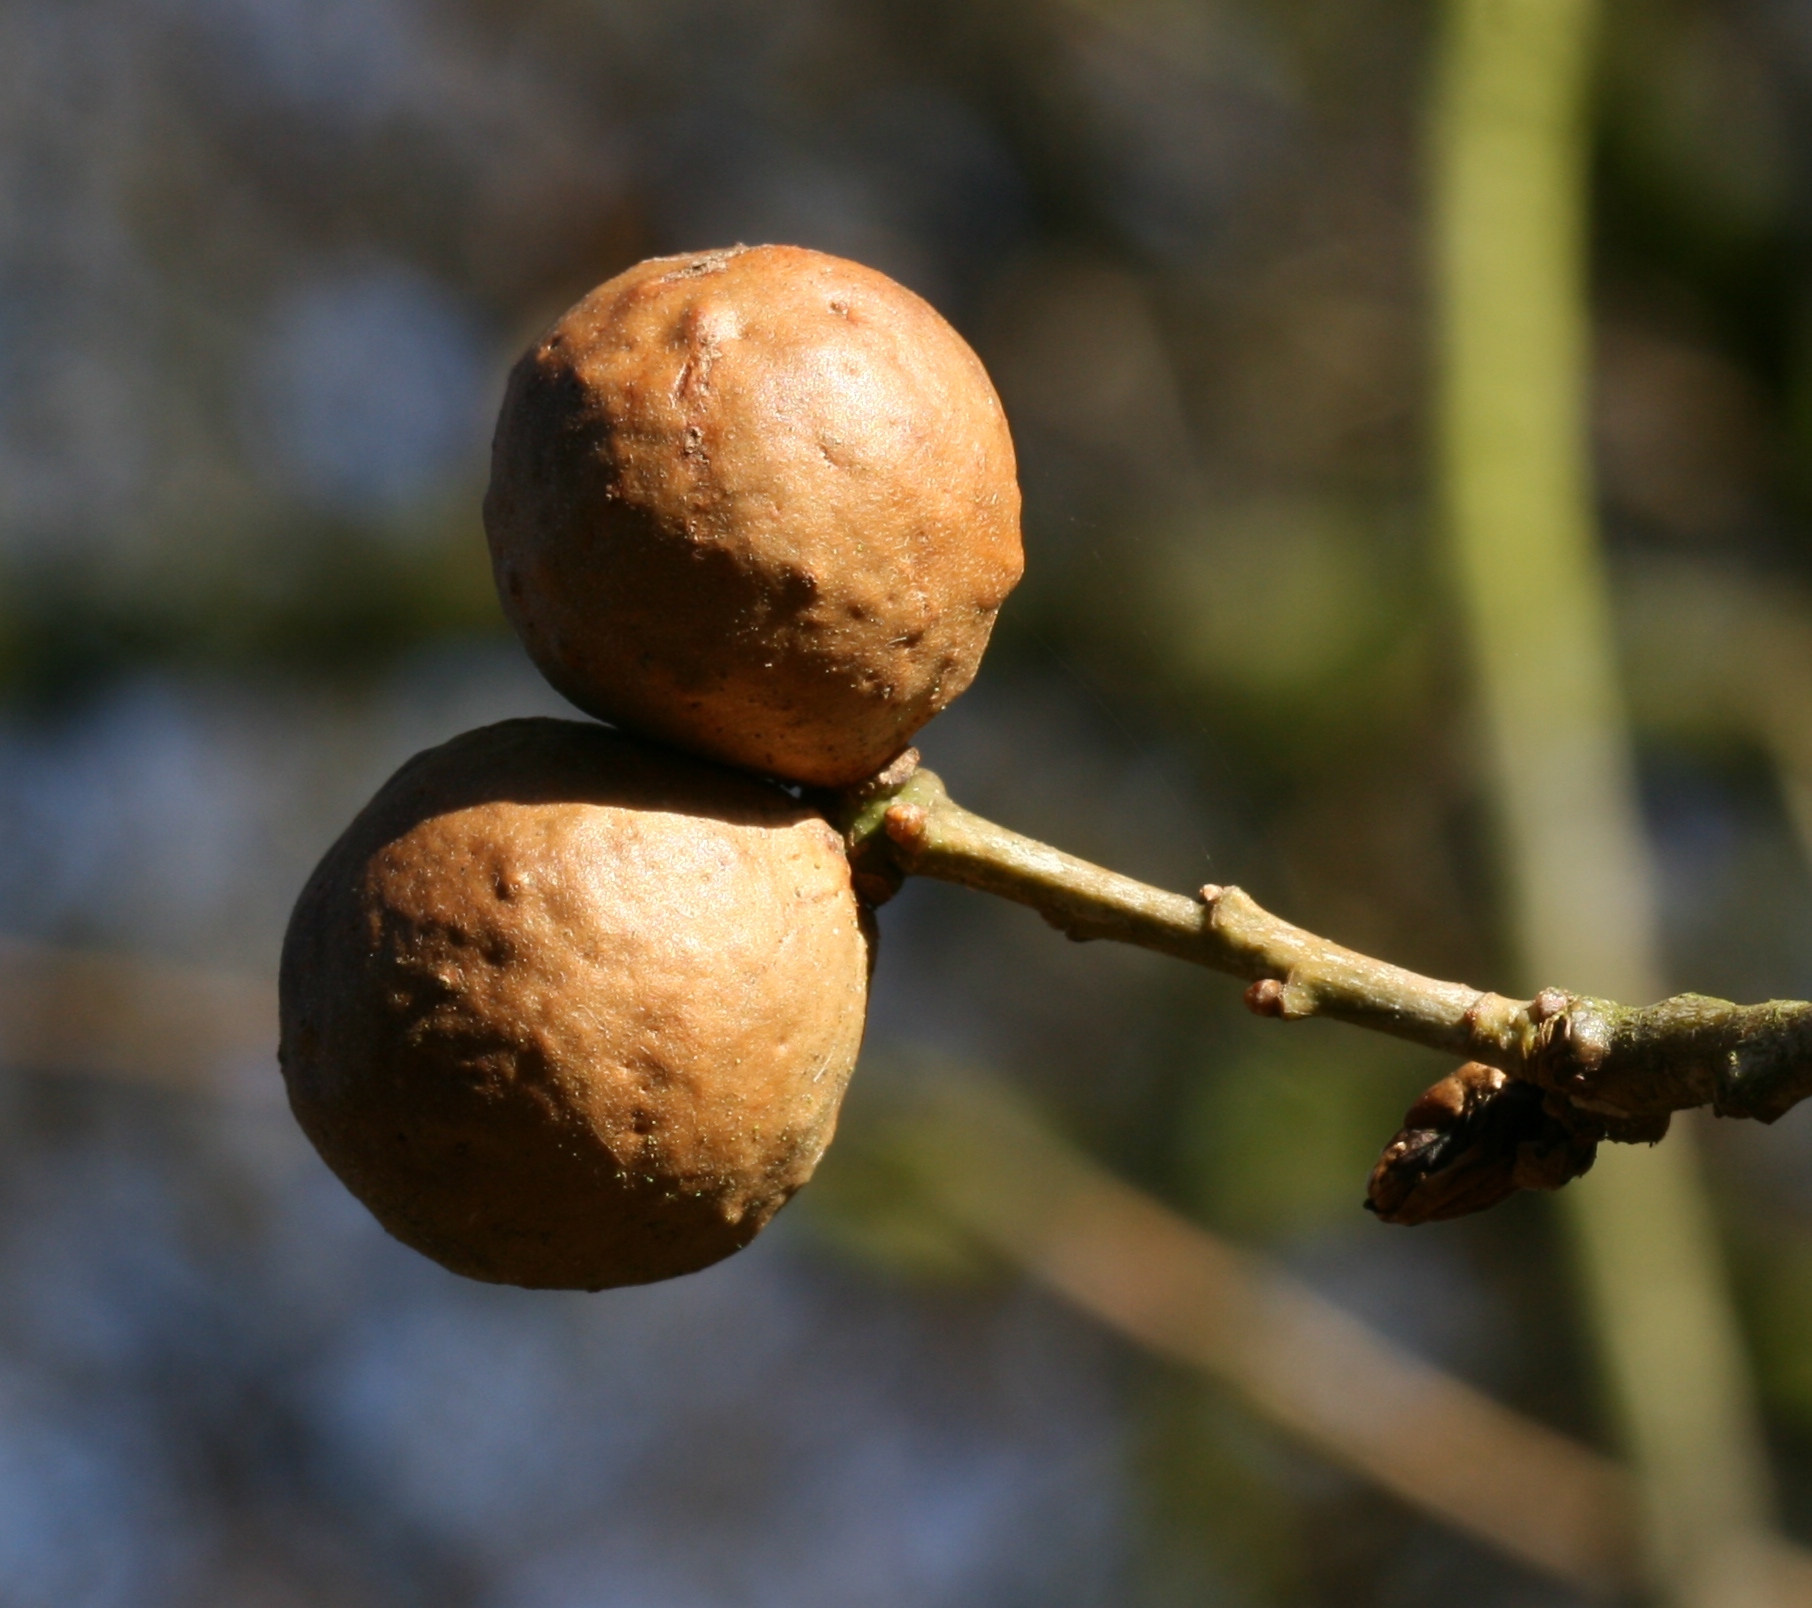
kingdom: Animalia
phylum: Arthropoda
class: Insecta
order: Hymenoptera
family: Cynipidae
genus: Andricus
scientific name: Andricus kollari
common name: Marble gall
